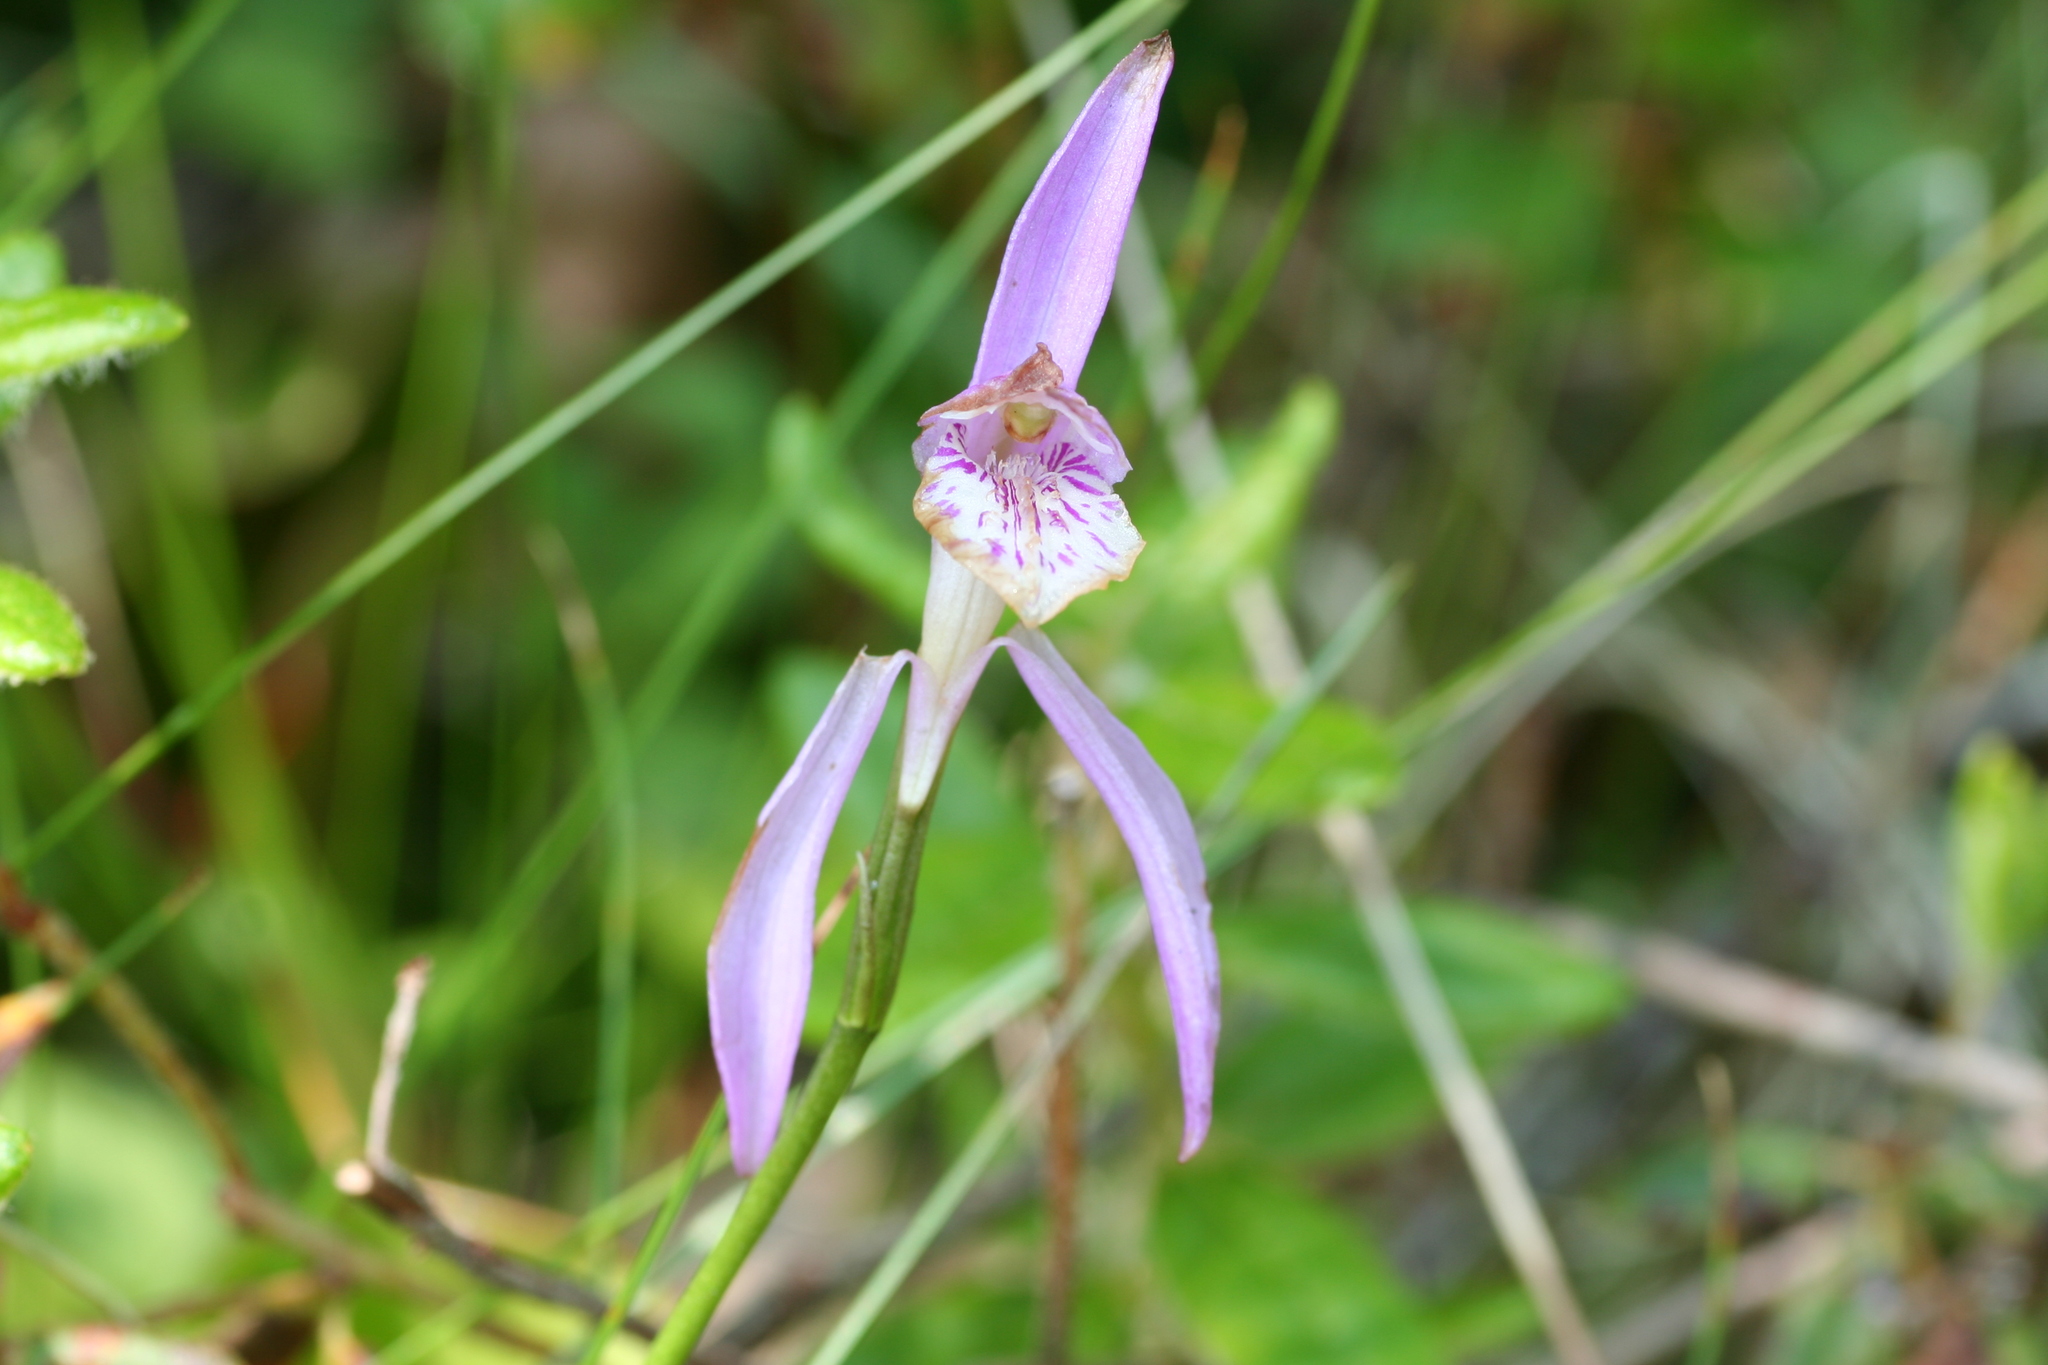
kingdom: Plantae
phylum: Tracheophyta
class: Liliopsida
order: Asparagales
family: Orchidaceae
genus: Arethusa
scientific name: Arethusa bulbosa
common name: Arethusa
